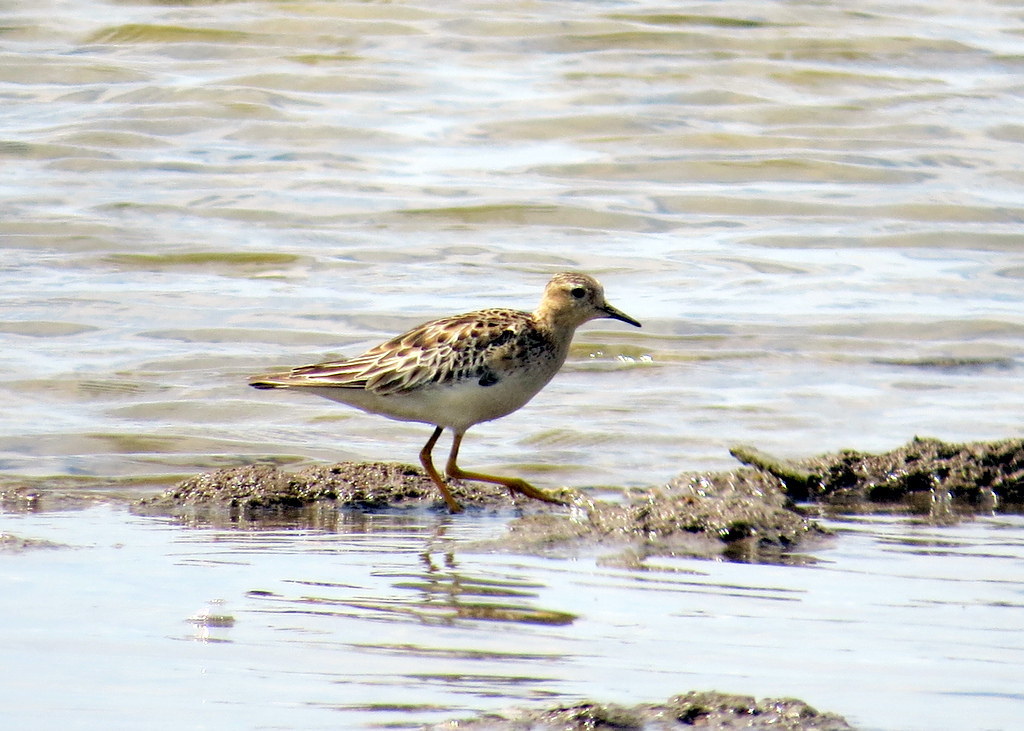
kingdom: Animalia
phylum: Chordata
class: Aves
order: Charadriiformes
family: Scolopacidae
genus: Calidris
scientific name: Calidris subruficollis
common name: Buff-breasted sandpiper
